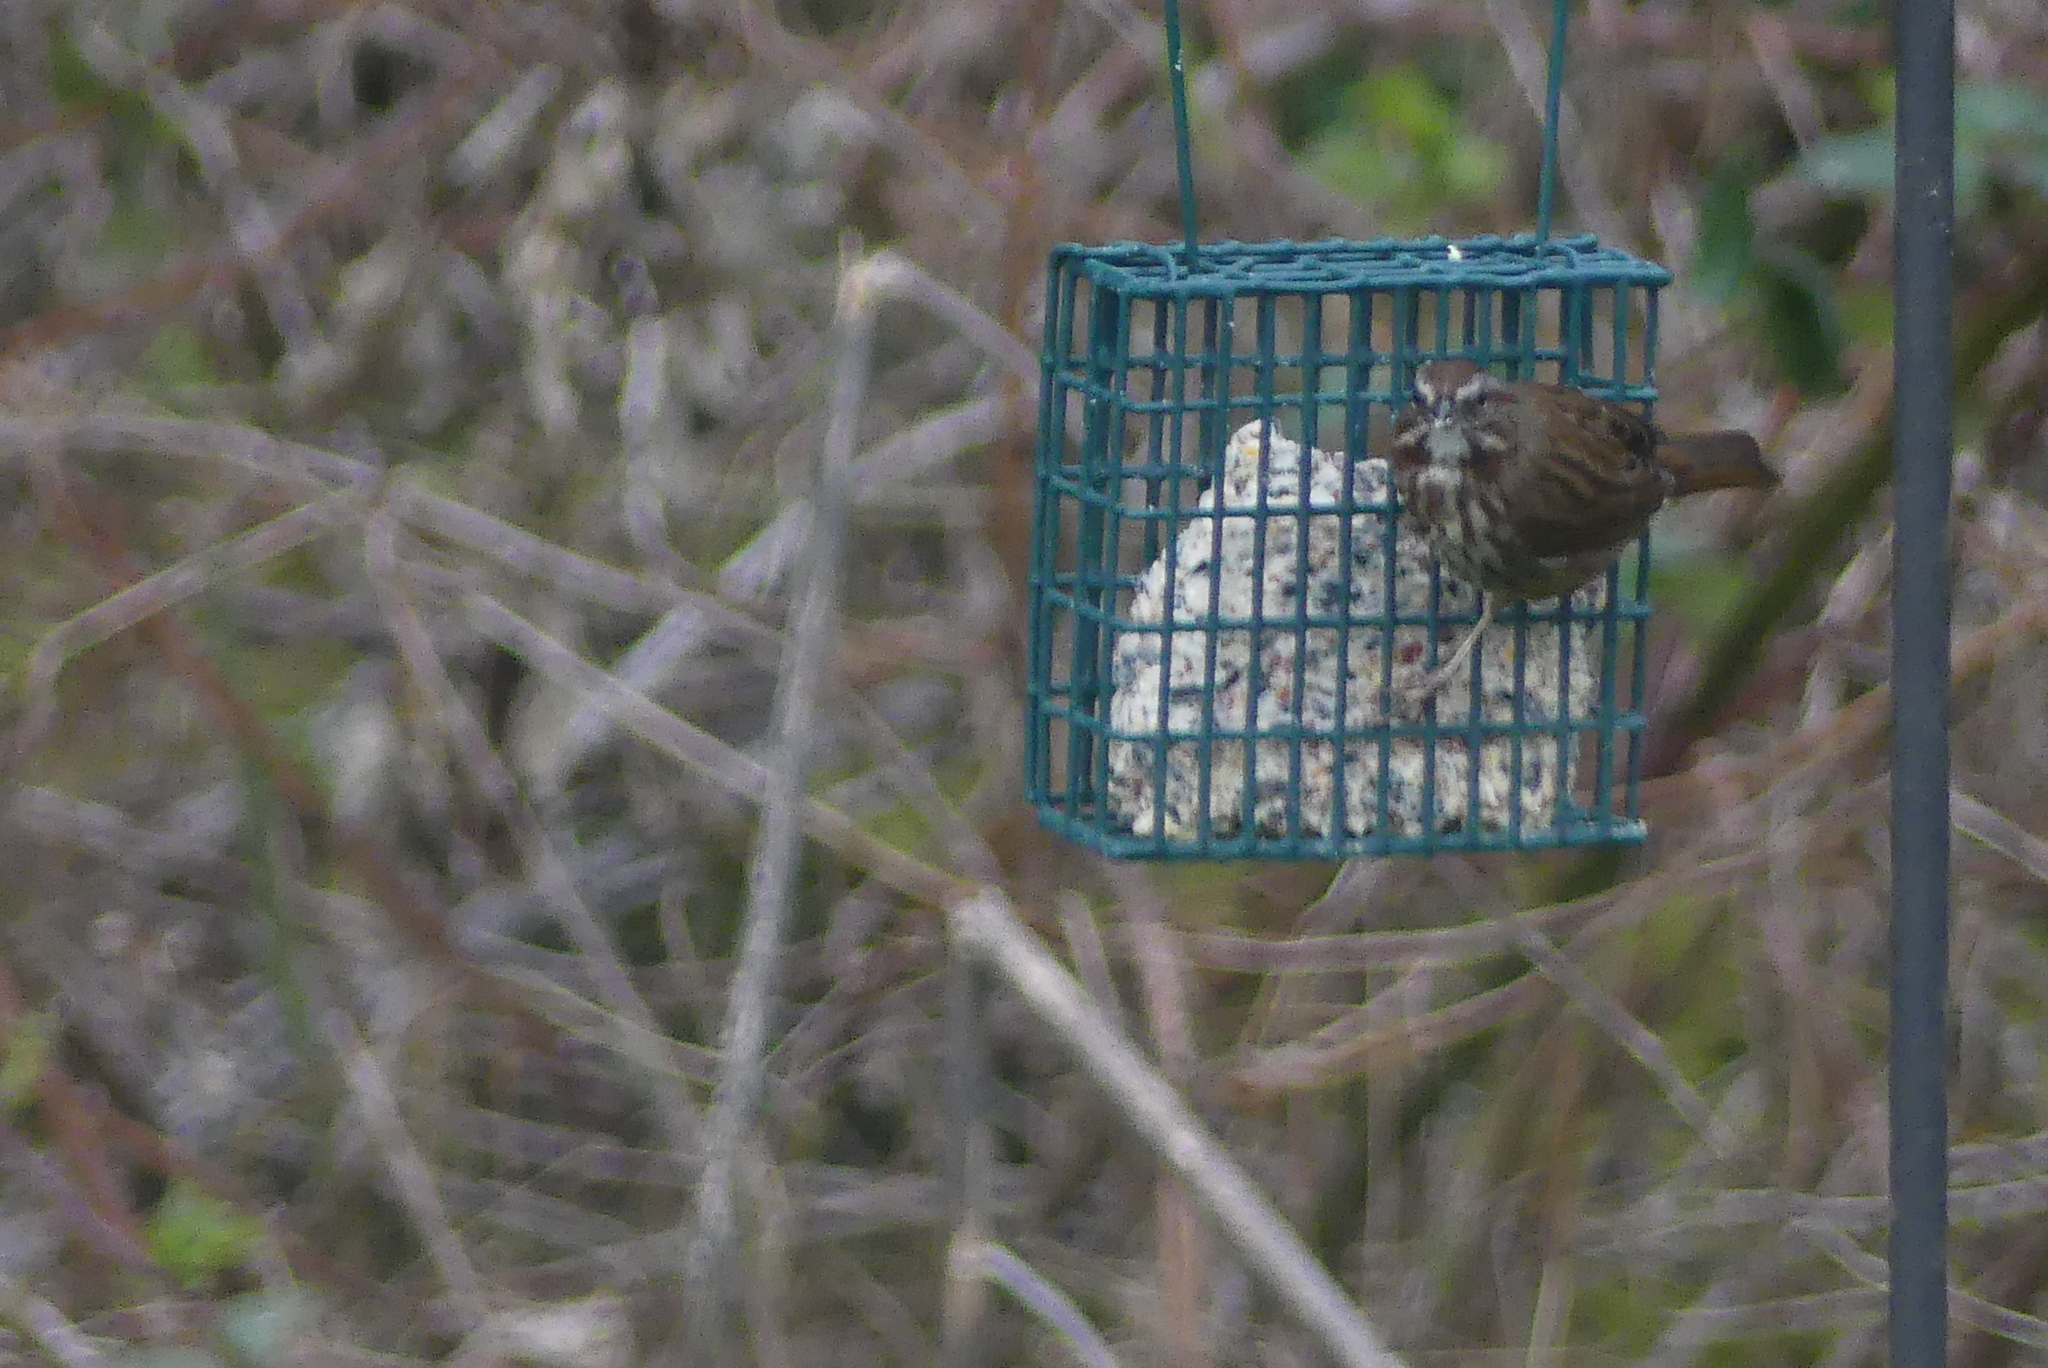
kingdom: Animalia
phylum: Chordata
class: Aves
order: Passeriformes
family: Passerellidae
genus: Melospiza
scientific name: Melospiza melodia
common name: Song sparrow
